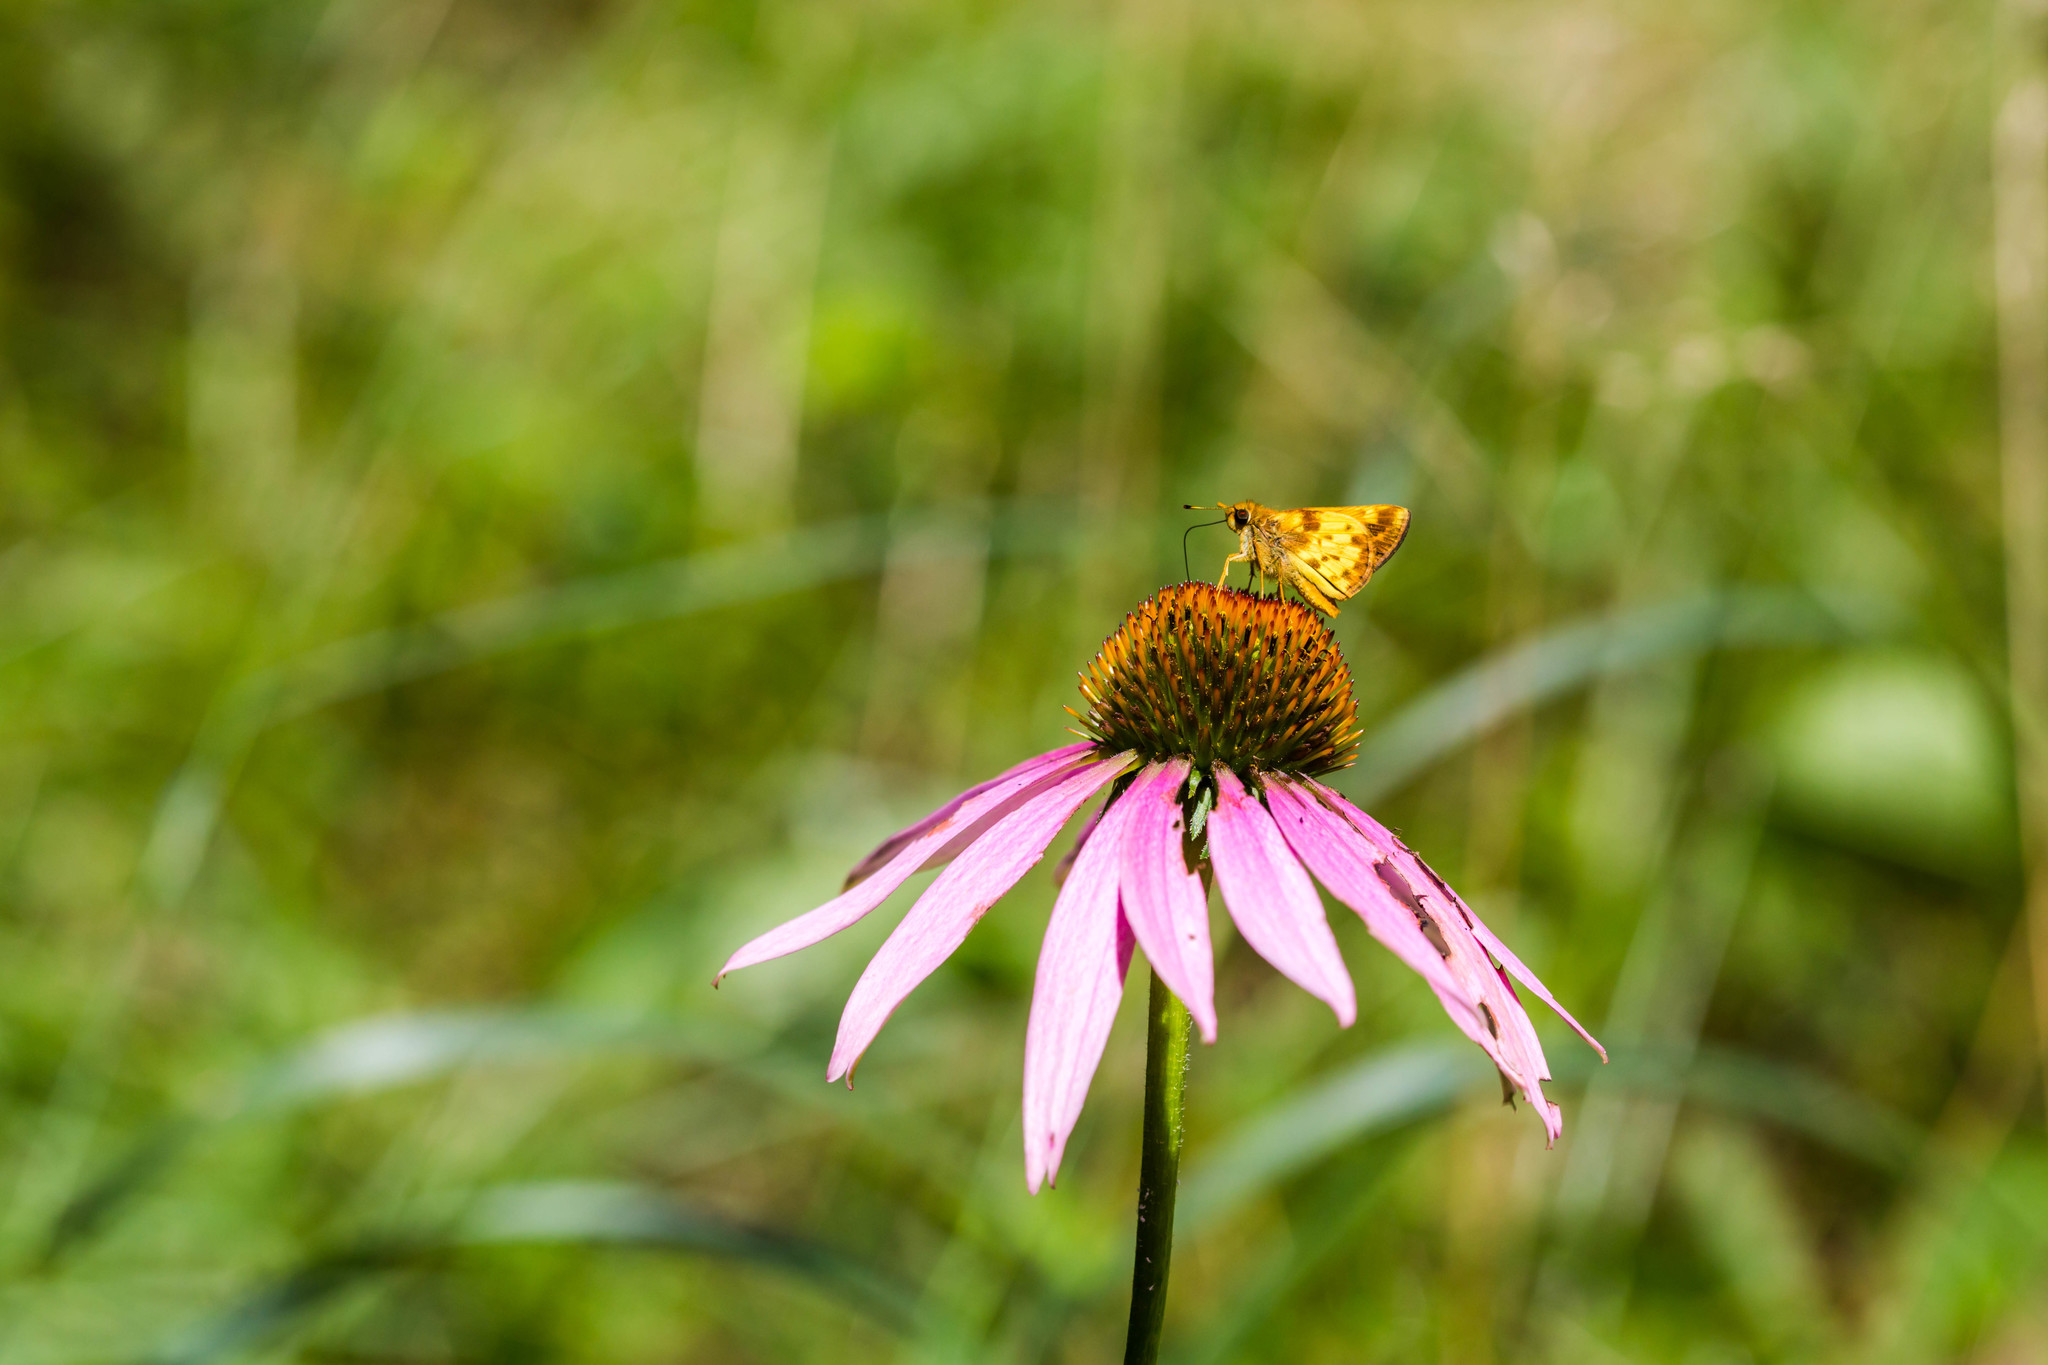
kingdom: Animalia
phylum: Arthropoda
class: Insecta
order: Lepidoptera
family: Hesperiidae
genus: Lon
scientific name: Lon zabulon
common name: Zabulon skipper
